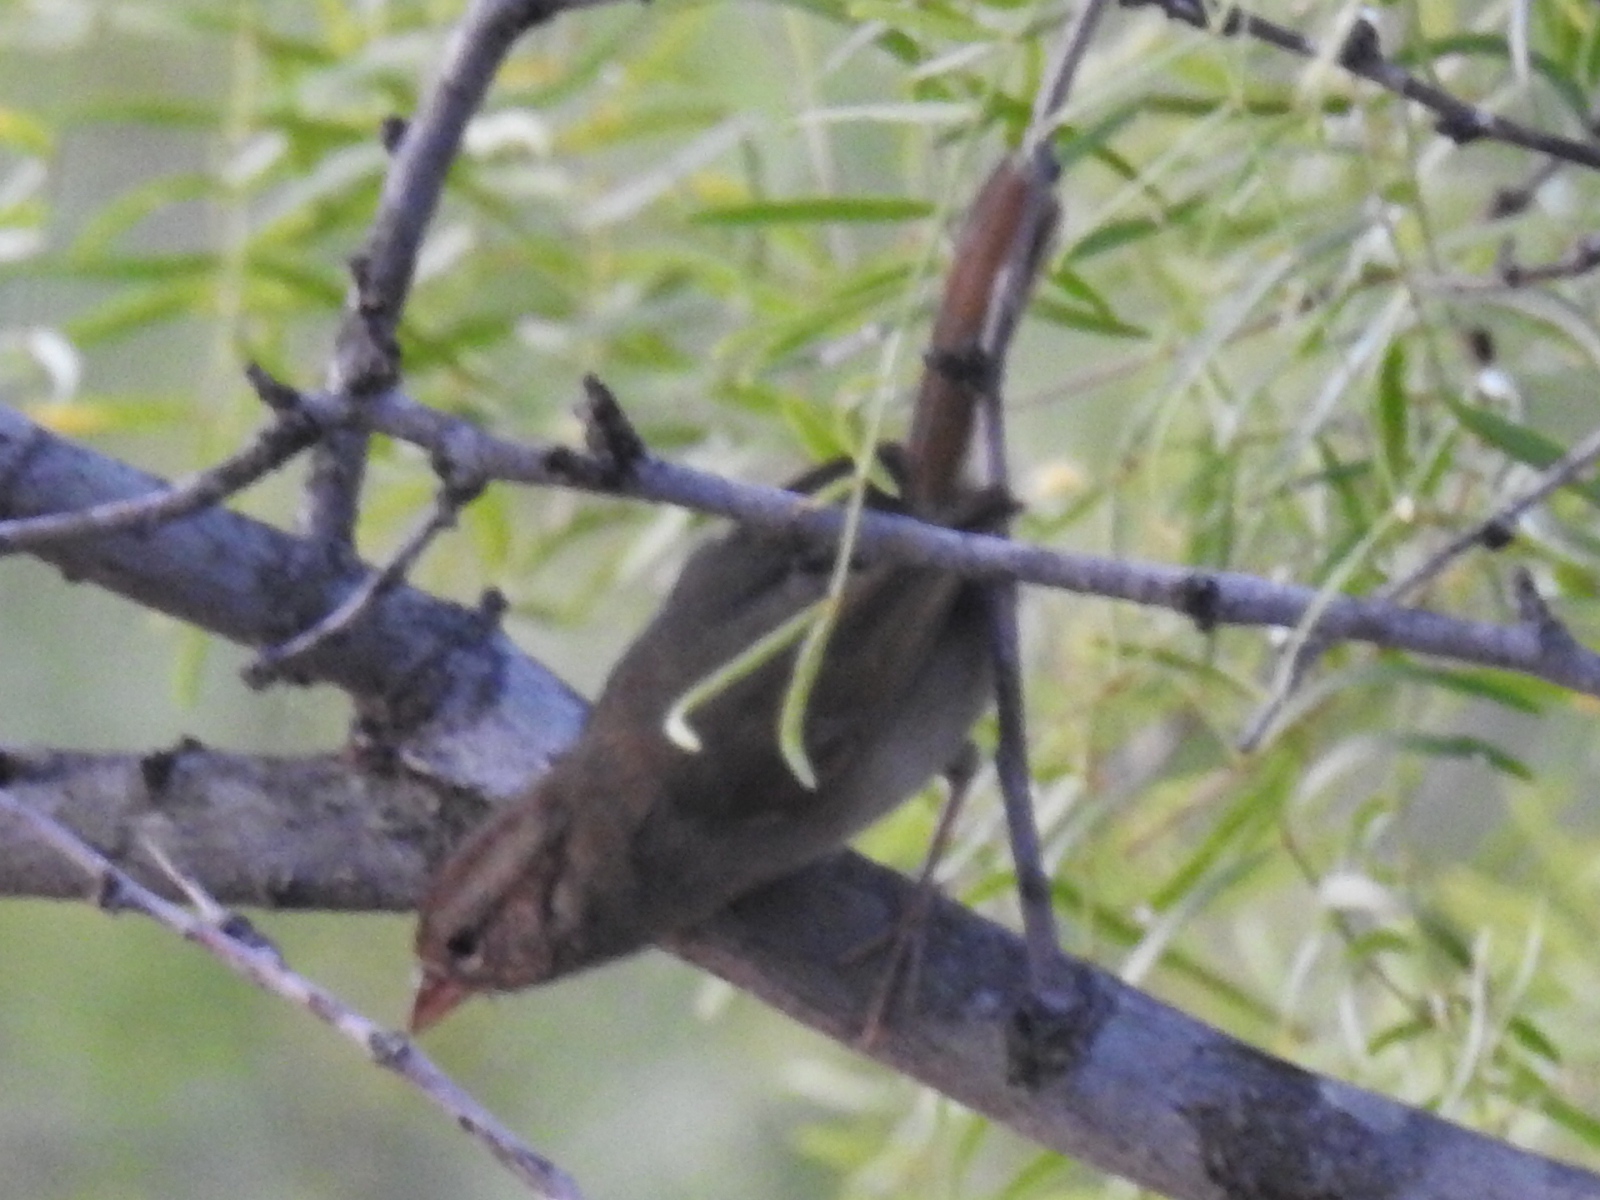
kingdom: Animalia
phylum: Chordata
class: Aves
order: Passeriformes
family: Passerellidae
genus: Arremonops
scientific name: Arremonops rufivirgatus
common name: Olive sparrow
